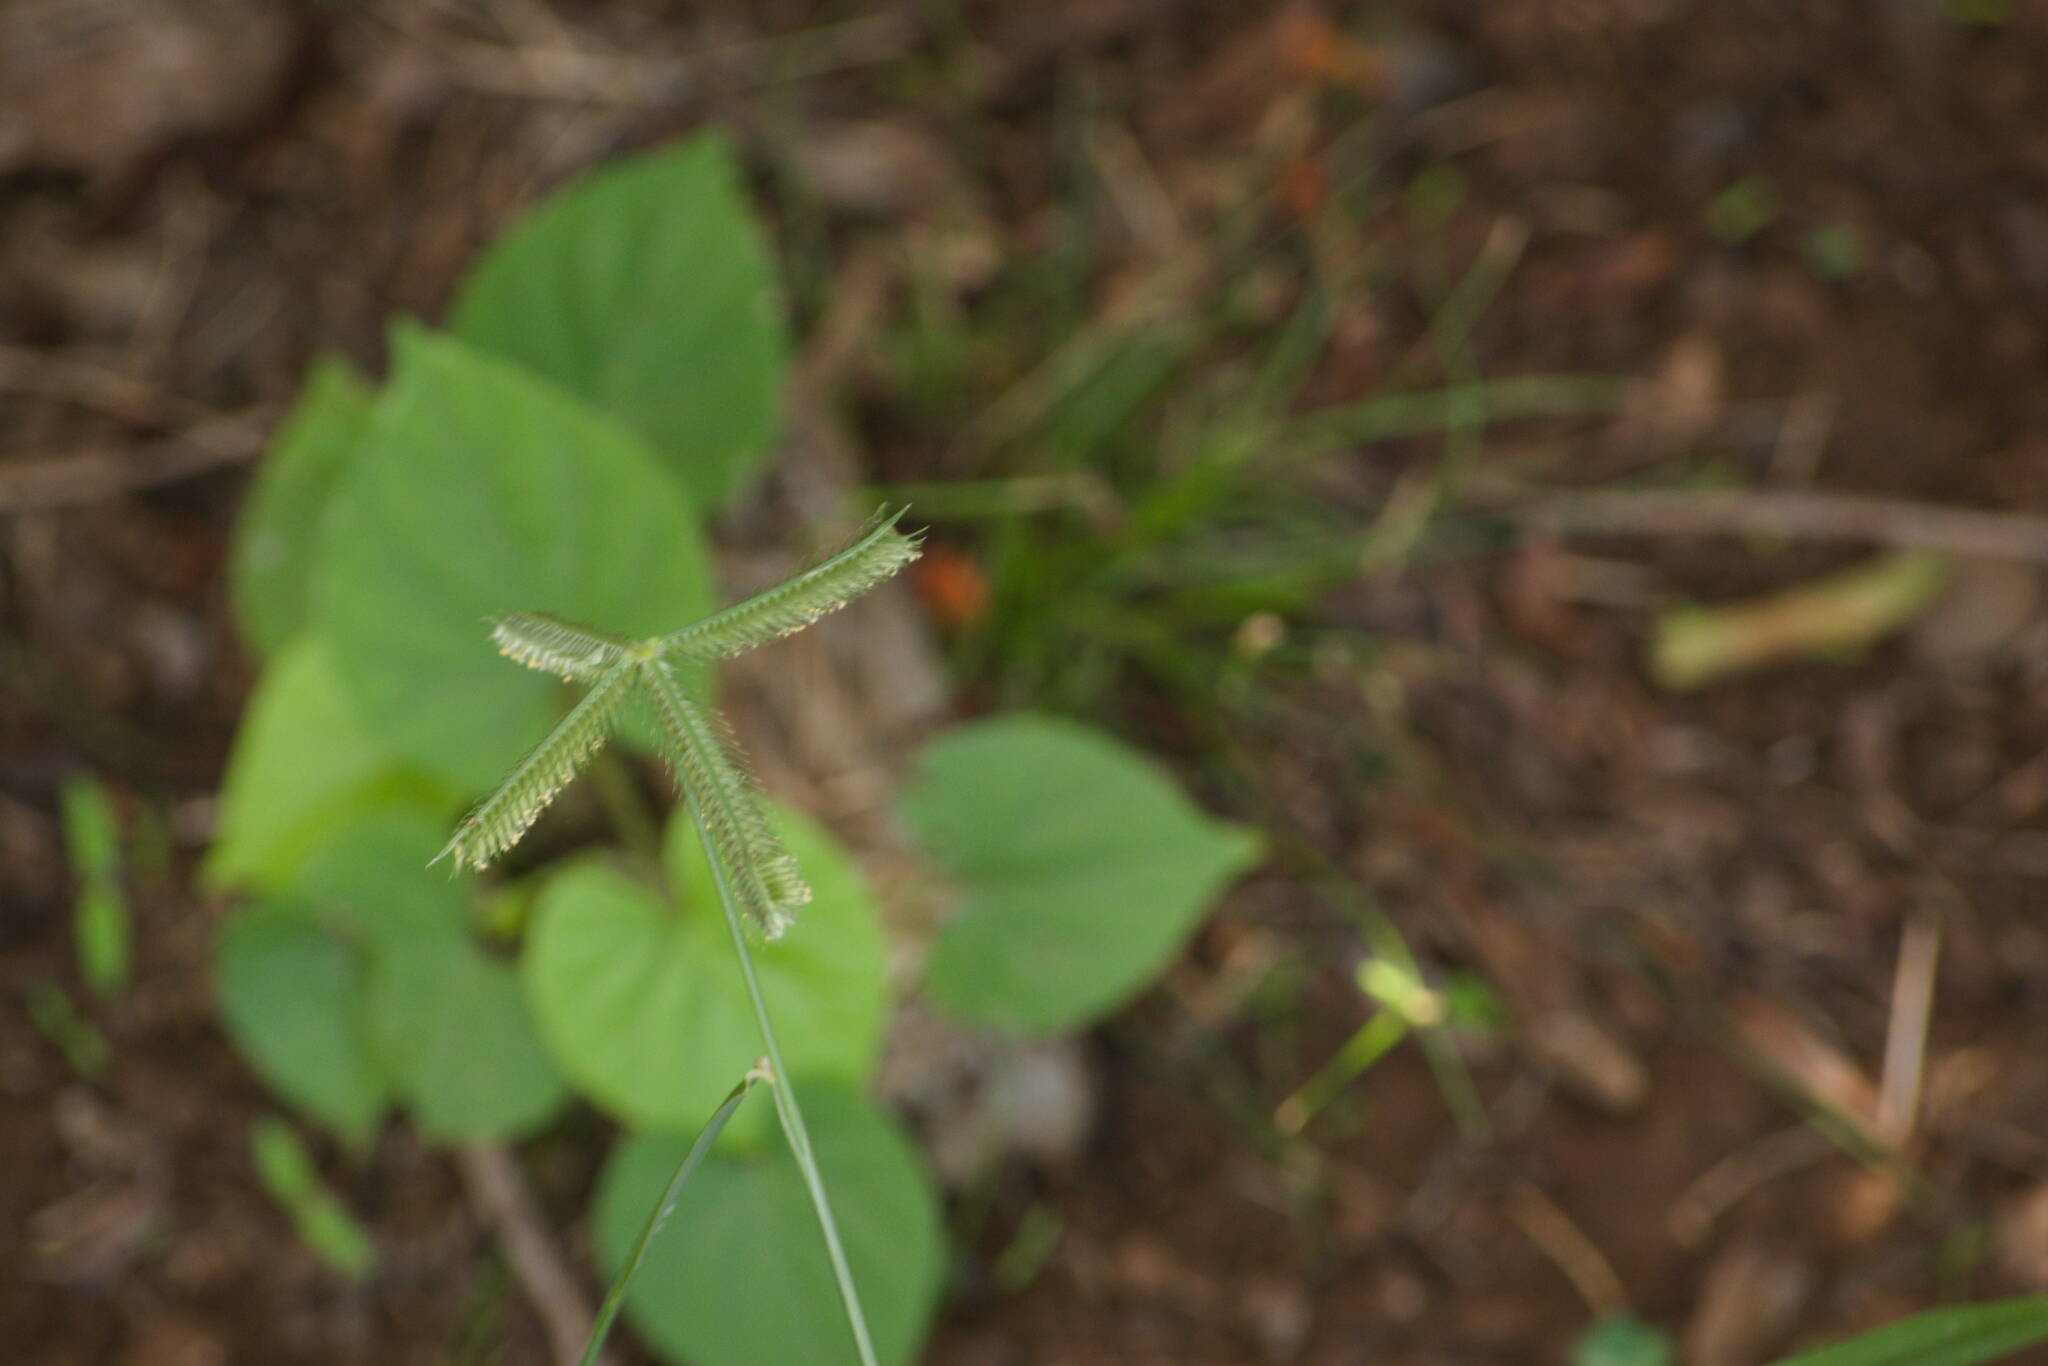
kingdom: Plantae
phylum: Tracheophyta
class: Liliopsida
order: Poales
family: Poaceae
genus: Dactyloctenium
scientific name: Dactyloctenium aegyptium
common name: Egyptian grass
